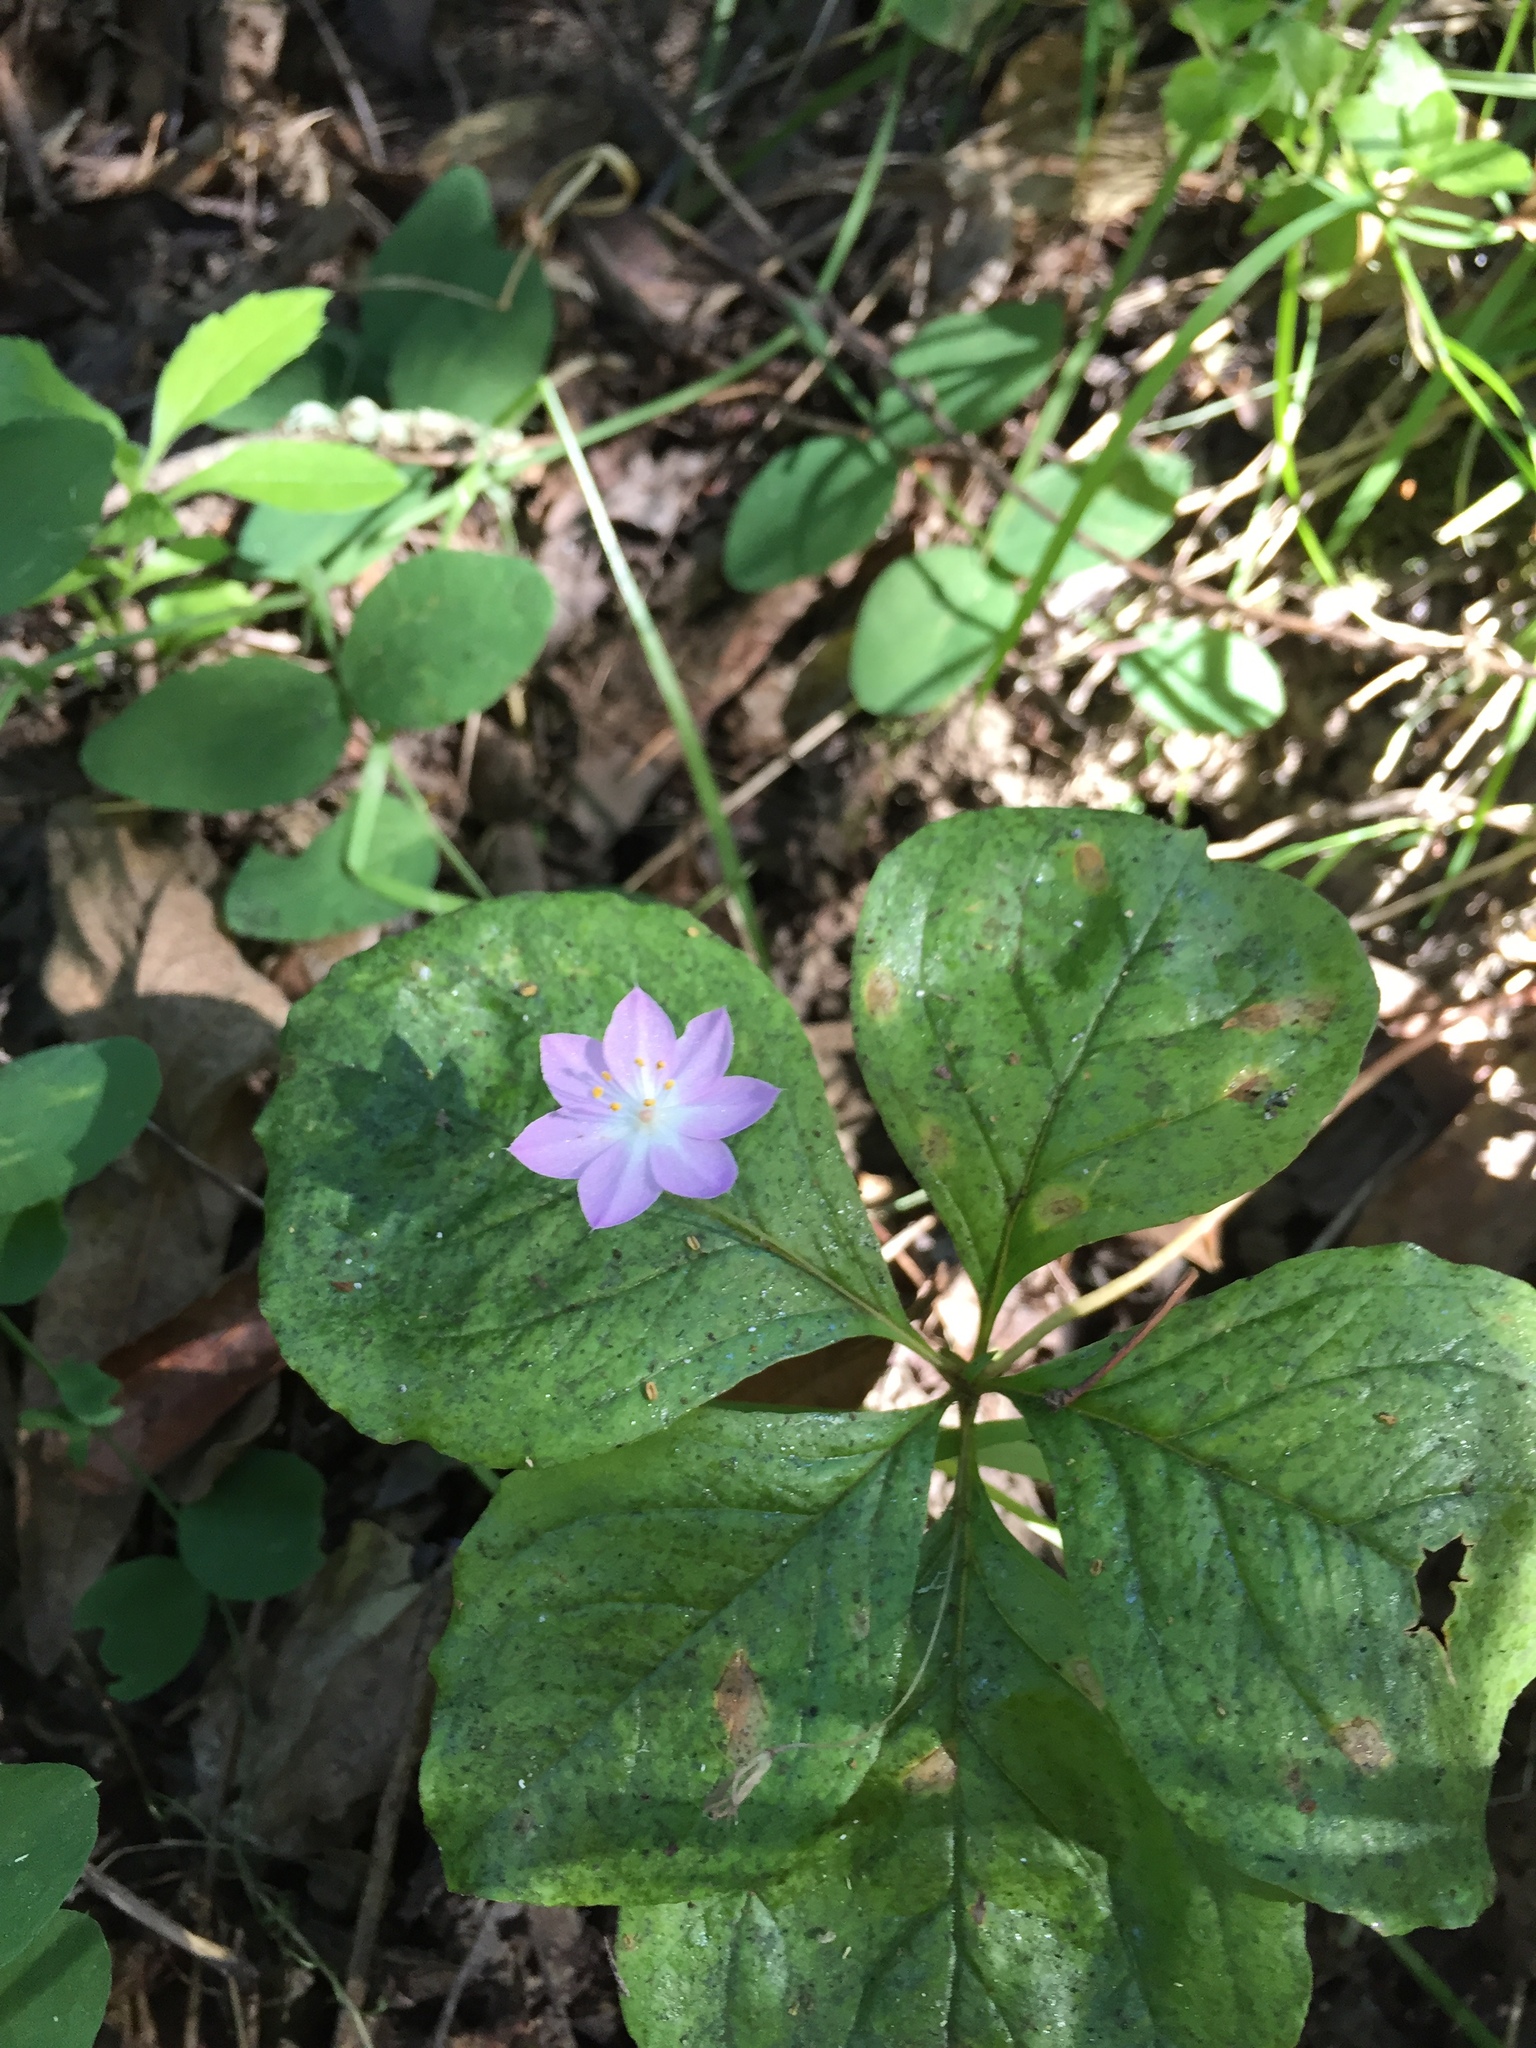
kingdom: Plantae
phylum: Tracheophyta
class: Magnoliopsida
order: Ericales
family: Primulaceae
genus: Lysimachia
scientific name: Lysimachia latifolia
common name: Pacific starflower
